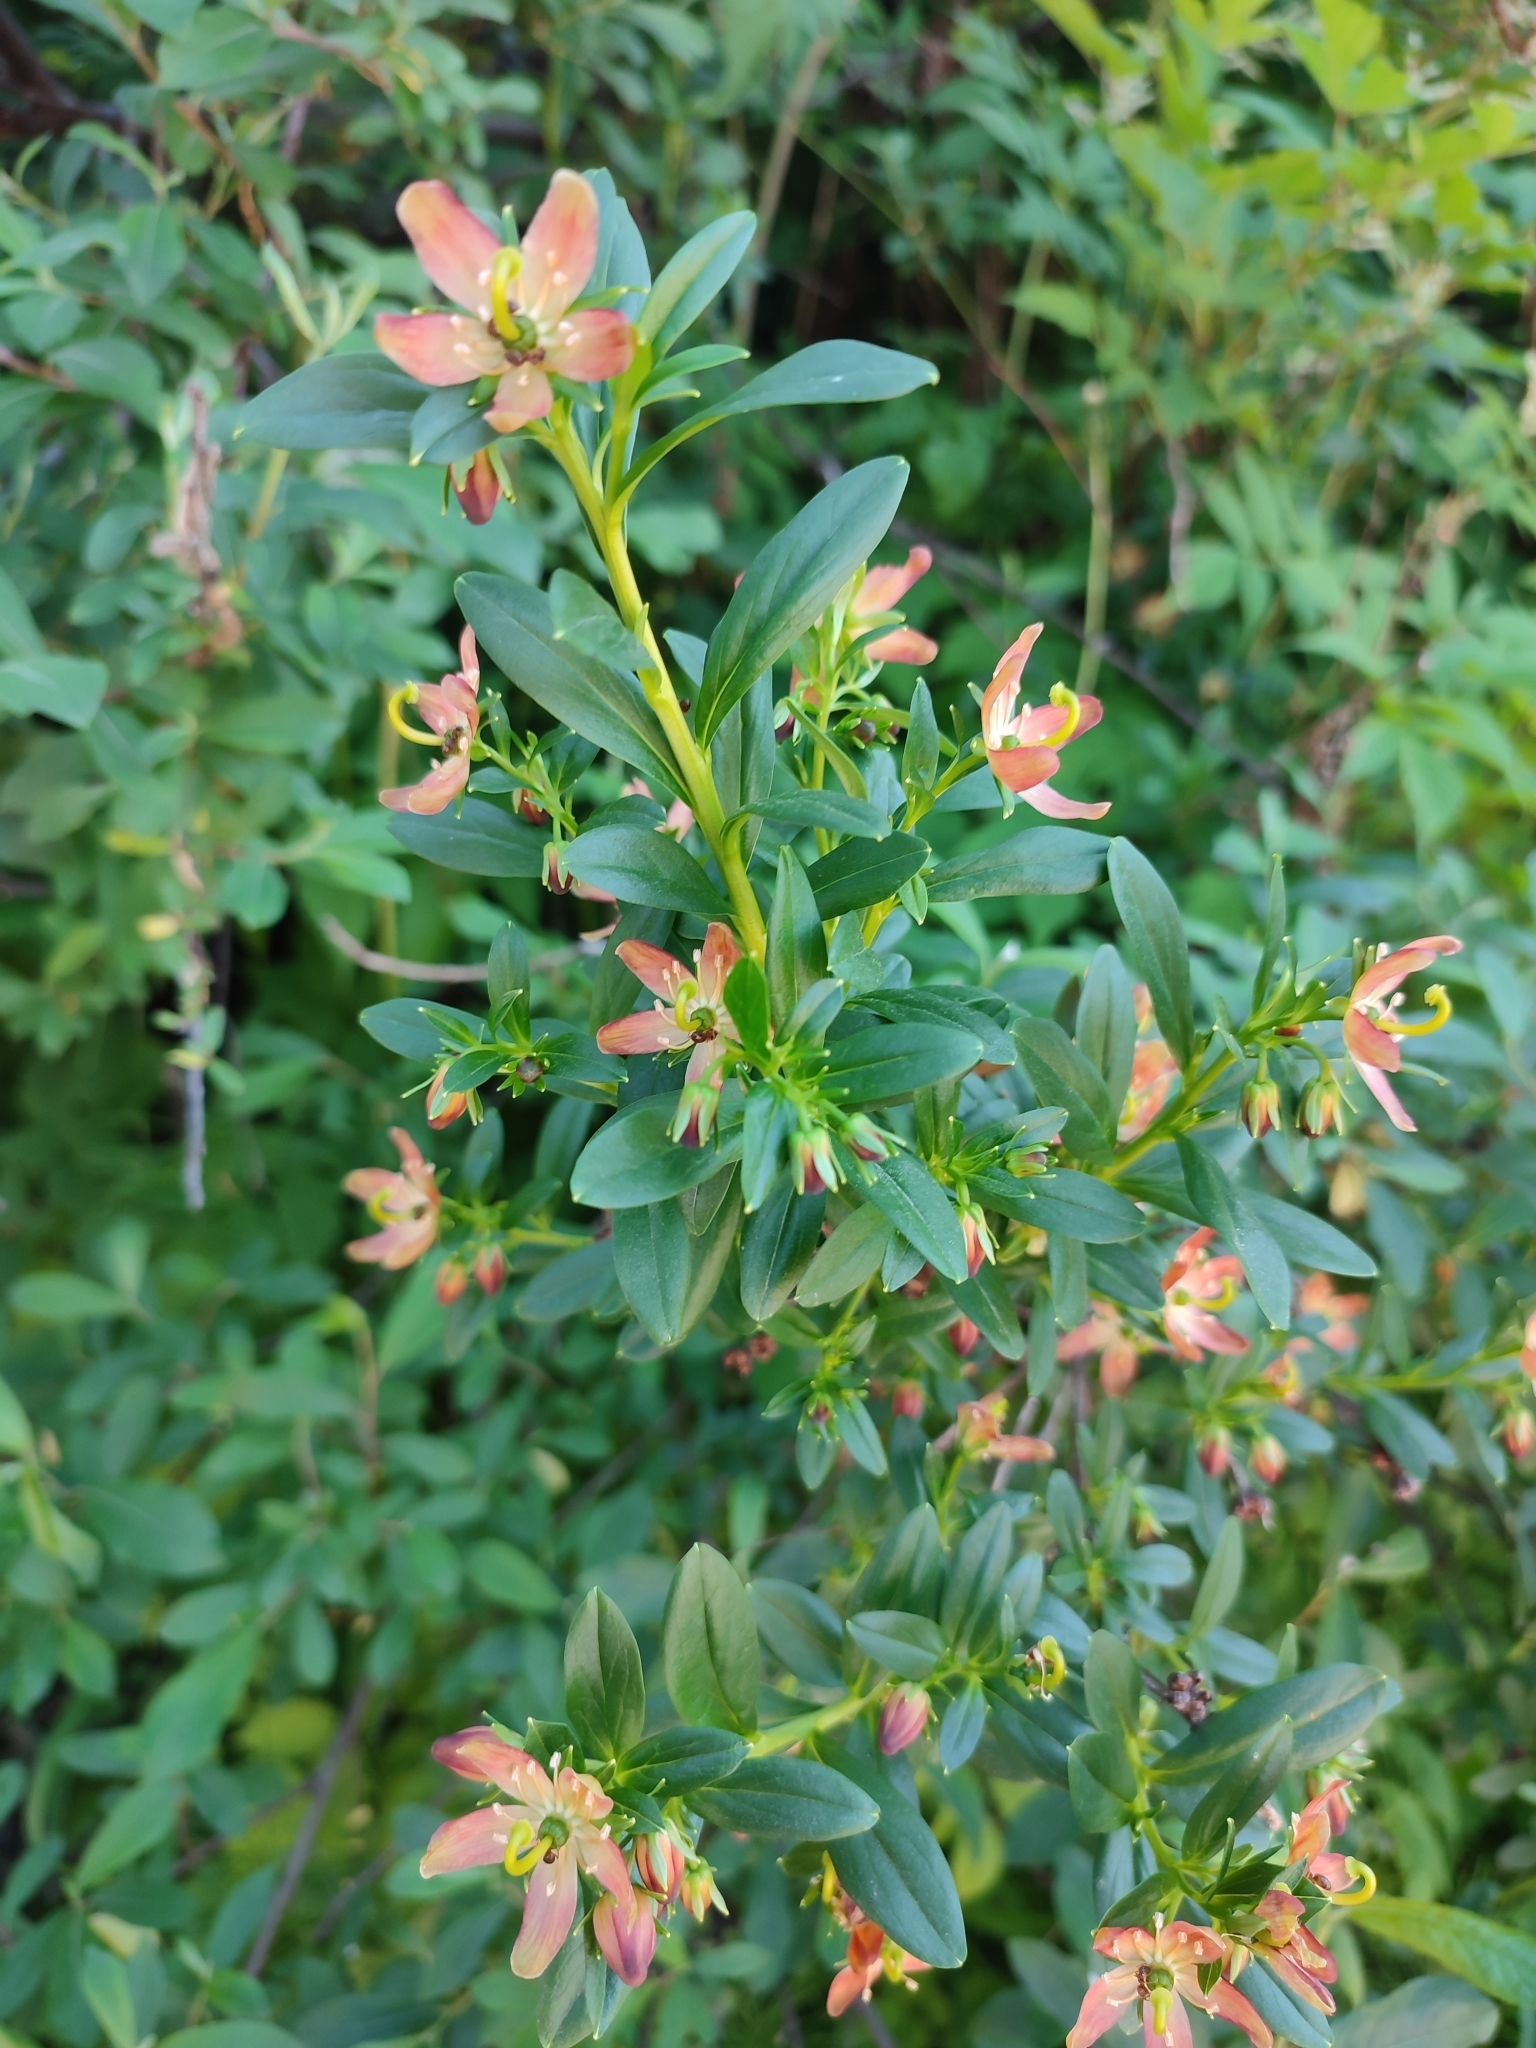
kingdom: Plantae
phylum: Tracheophyta
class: Magnoliopsida
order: Ericales
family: Ericaceae
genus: Elliottia
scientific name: Elliottia pyroliflora
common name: Copperbush
